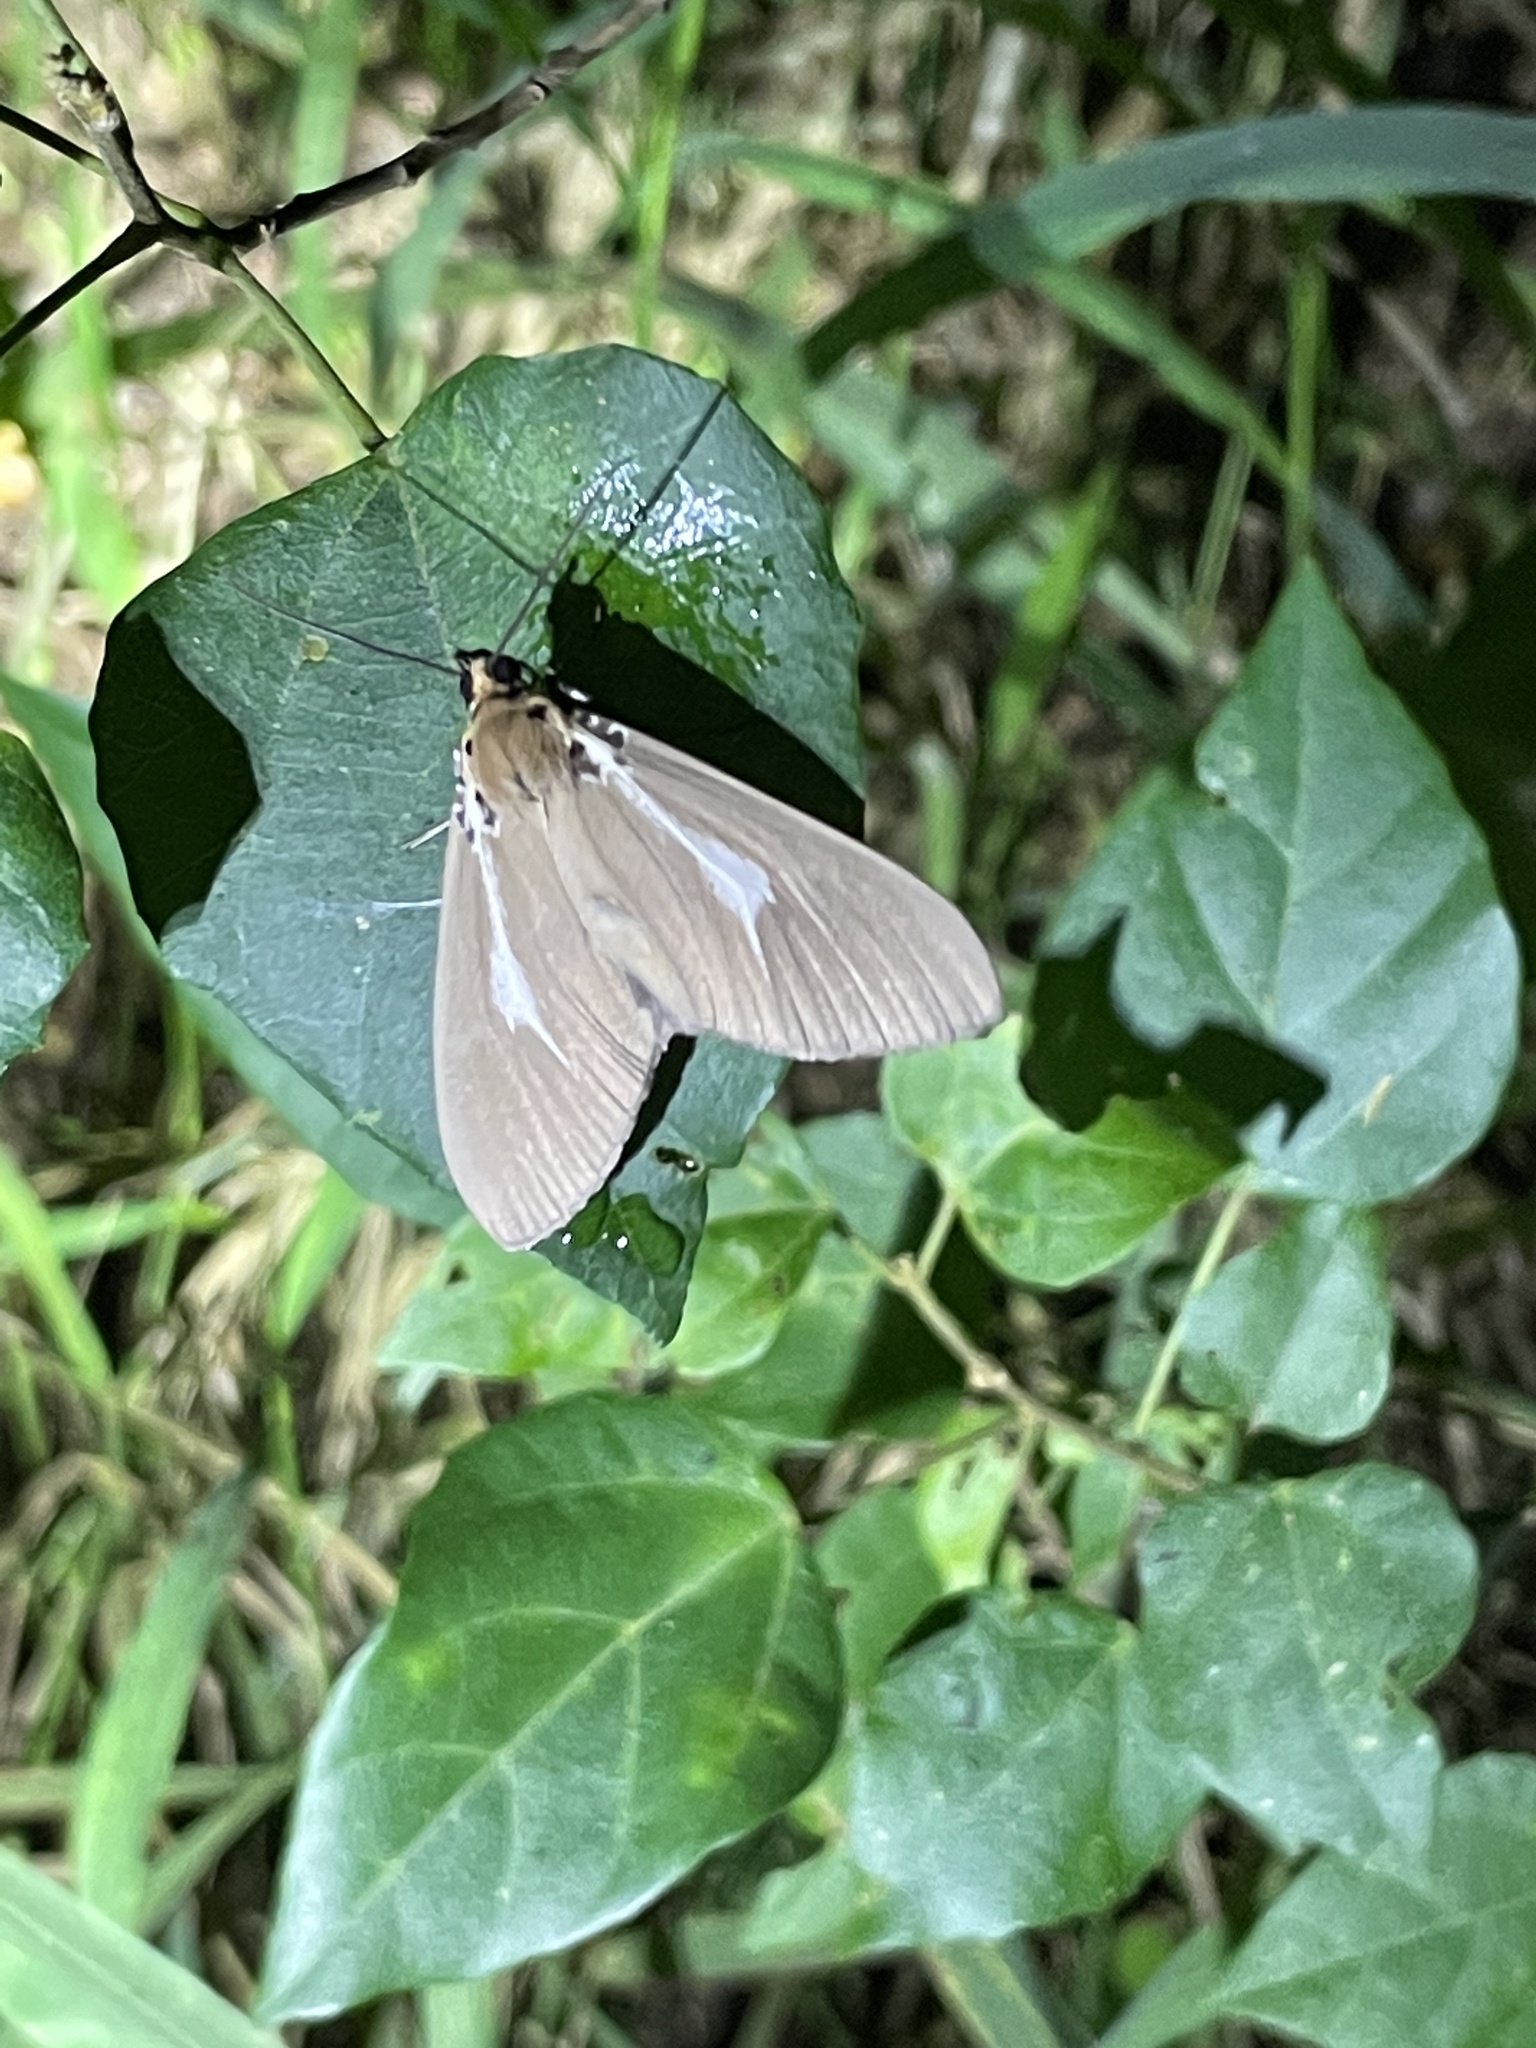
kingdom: Animalia
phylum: Arthropoda
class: Insecta
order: Lepidoptera
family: Erebidae
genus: Asota
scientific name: Asota heliconia
